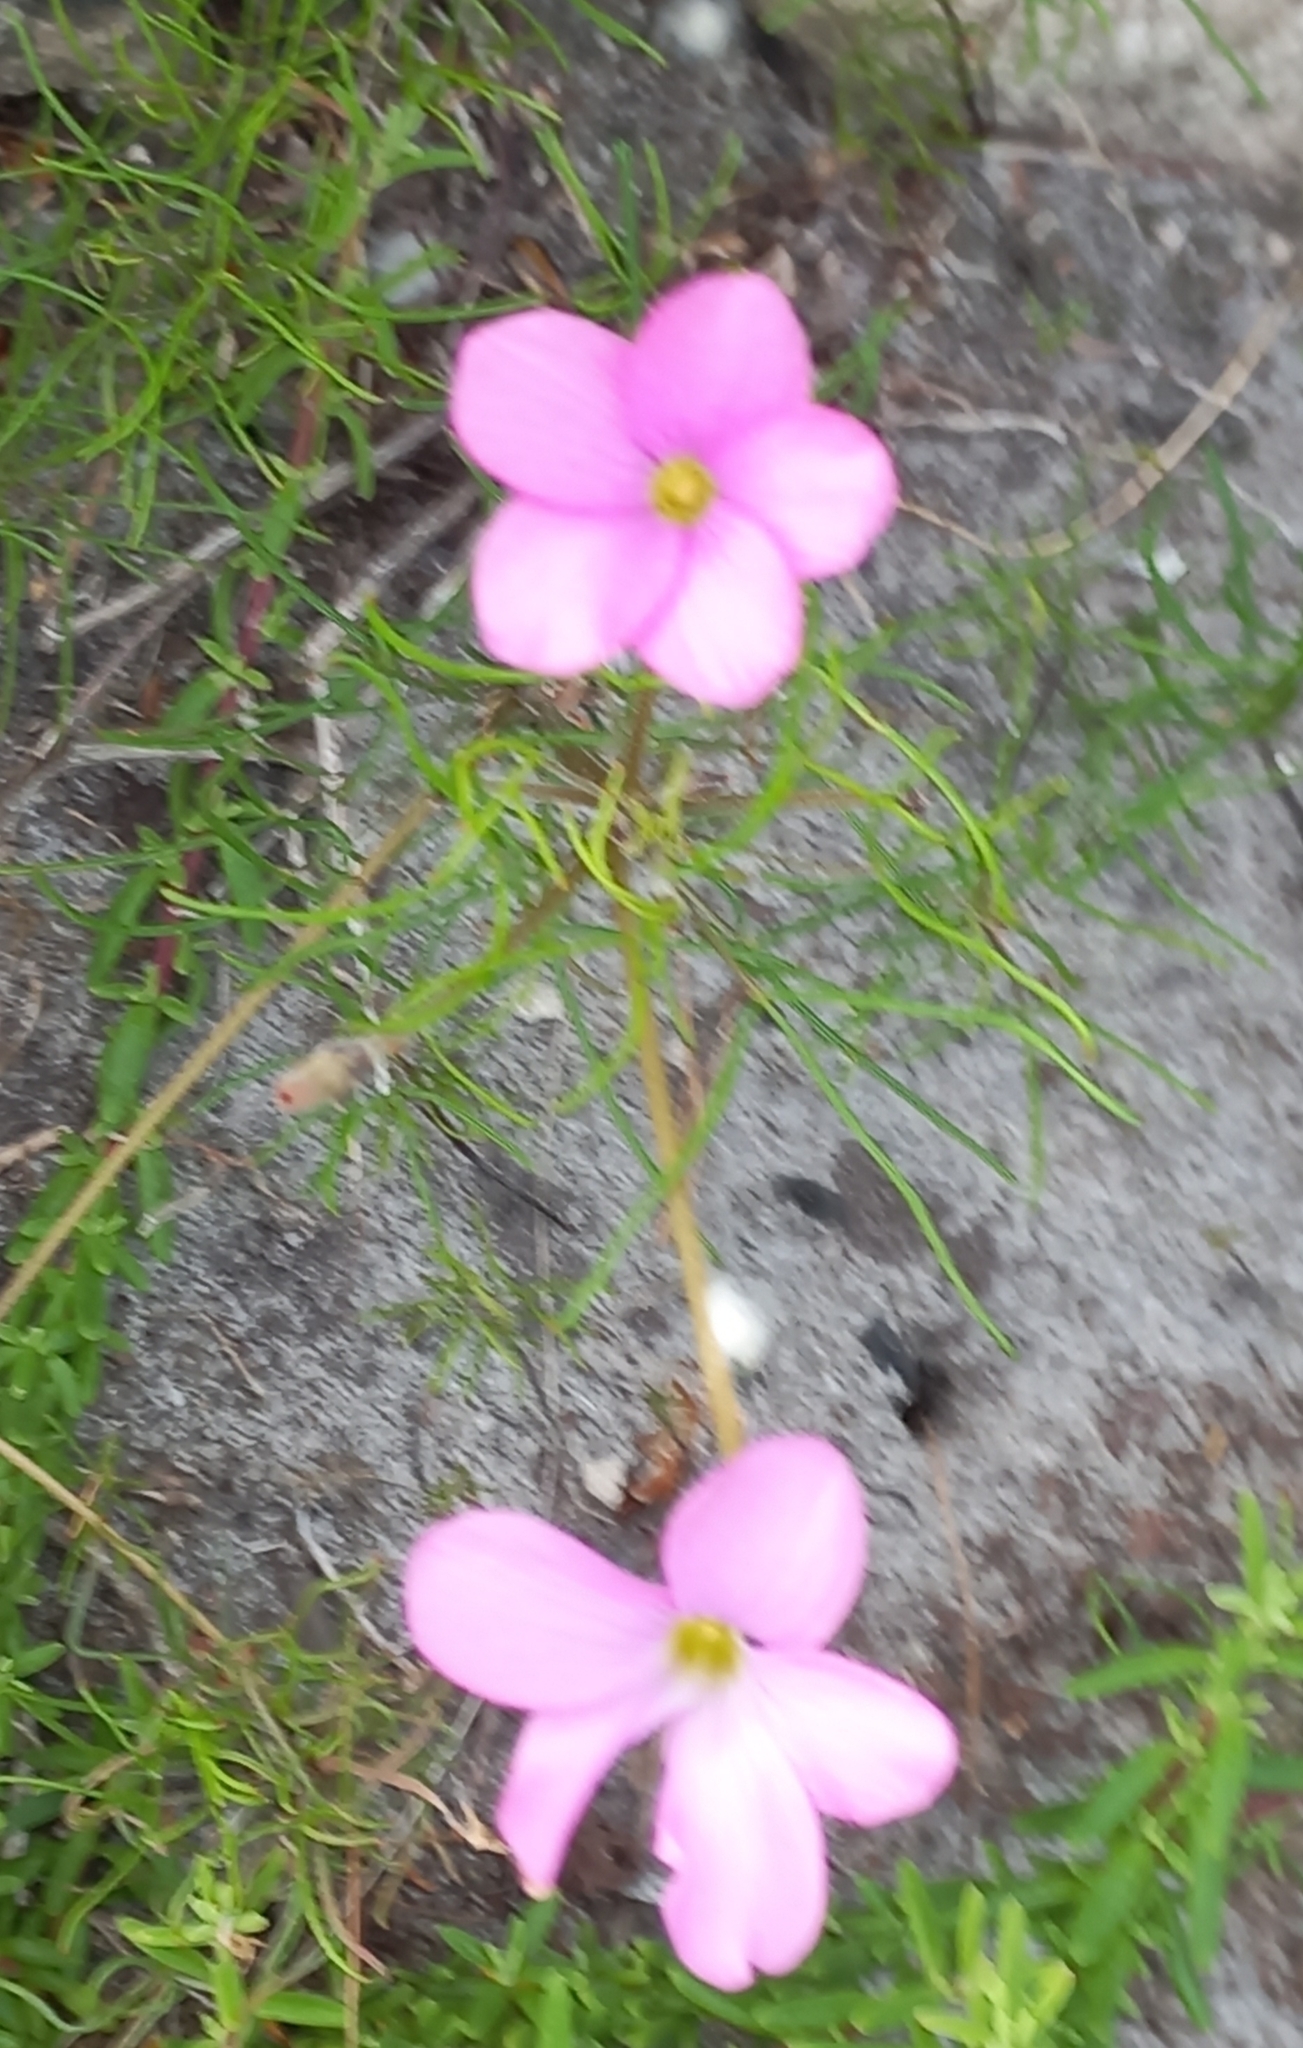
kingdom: Plantae
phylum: Tracheophyta
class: Magnoliopsida
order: Oxalidales
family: Oxalidaceae
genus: Oxalis
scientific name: Oxalis polyphylla
